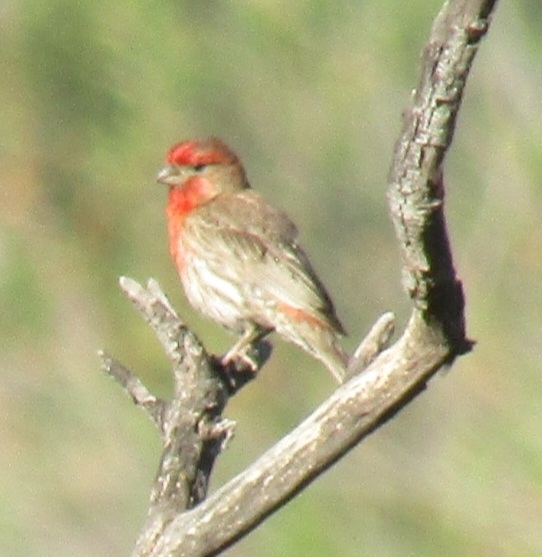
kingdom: Animalia
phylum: Chordata
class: Aves
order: Passeriformes
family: Fringillidae
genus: Haemorhous
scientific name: Haemorhous mexicanus
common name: House finch
